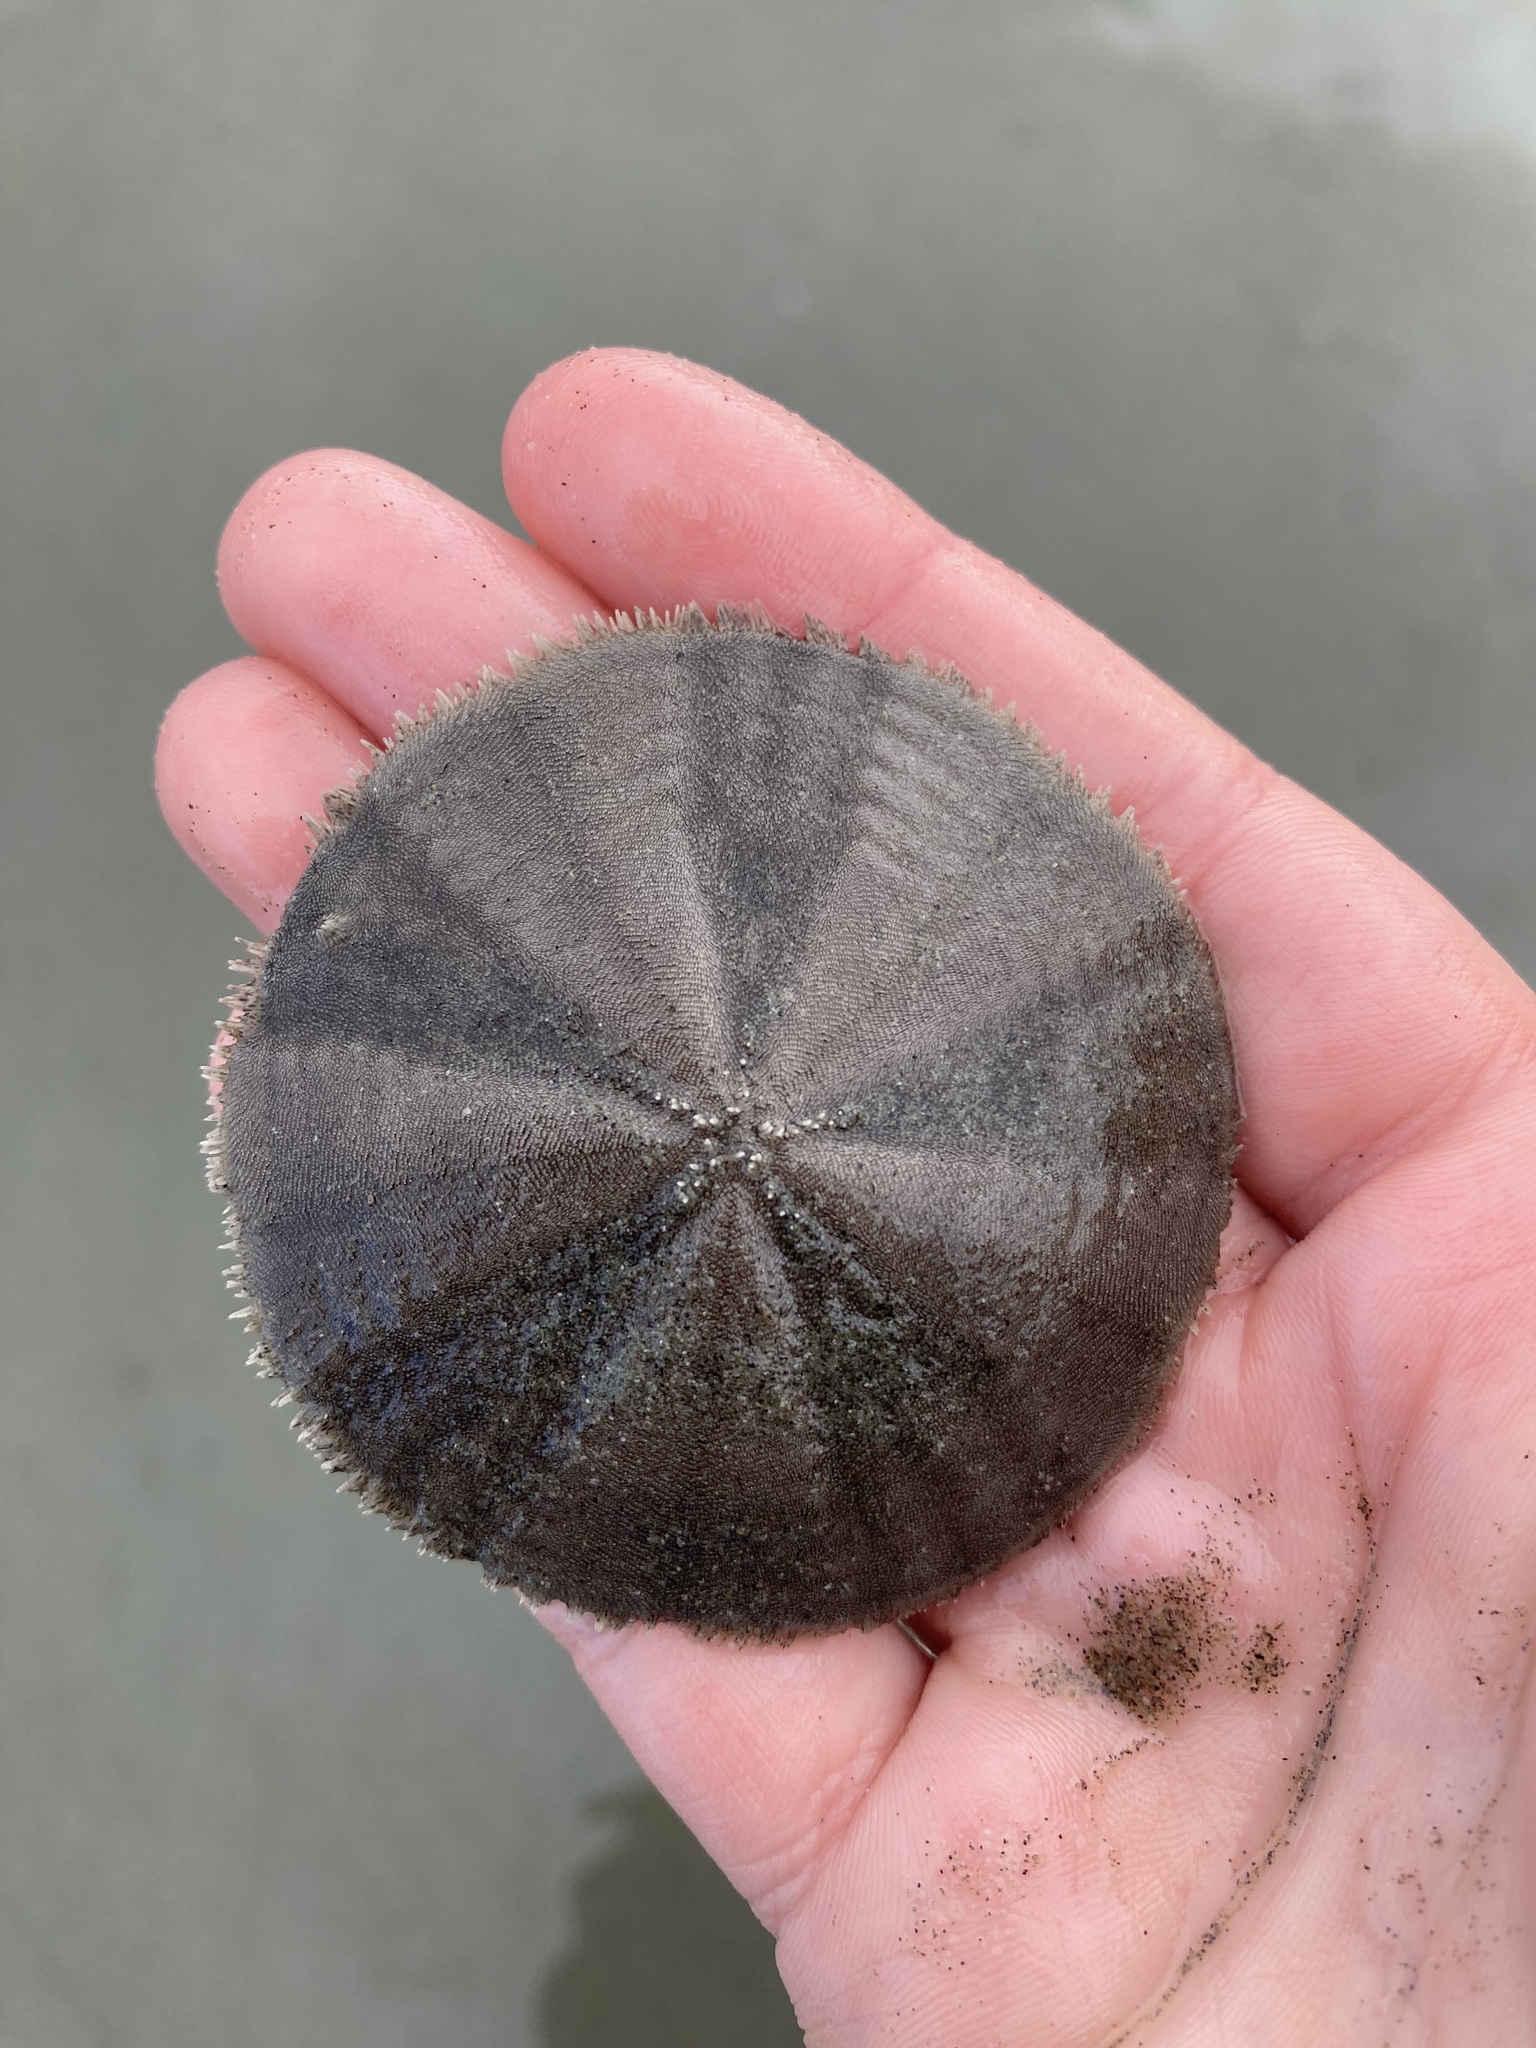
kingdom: Animalia
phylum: Echinodermata
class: Echinoidea
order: Clypeasteroida
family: Clypeasteridae
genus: Fellaster
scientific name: Fellaster zelandiae
